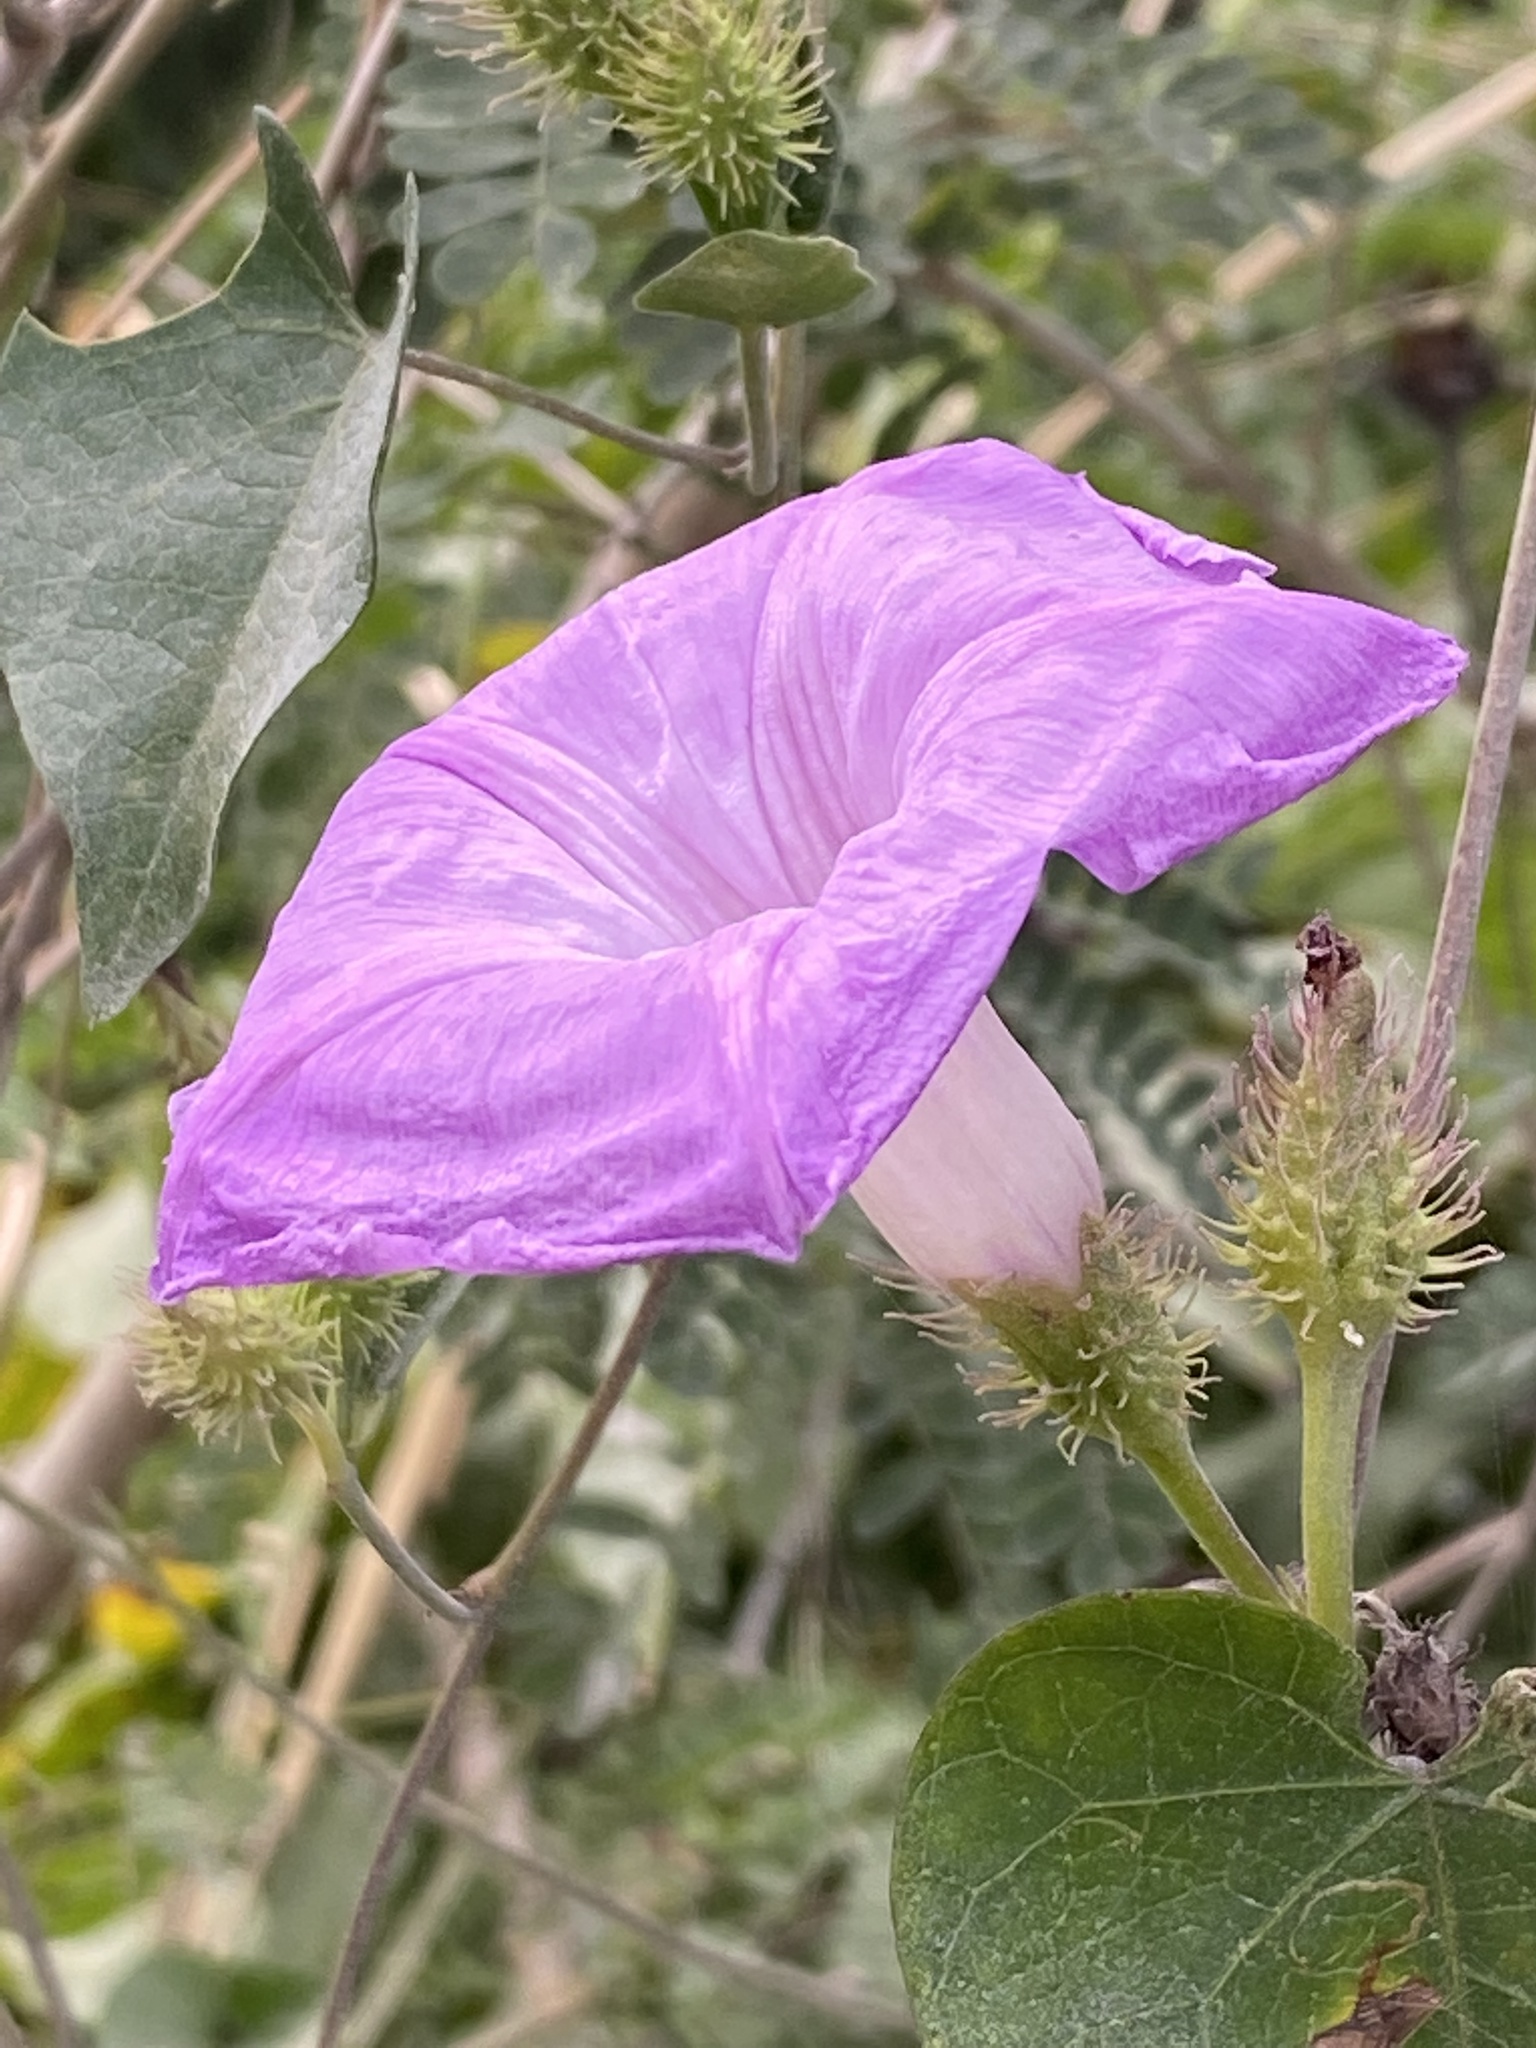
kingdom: Plantae
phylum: Tracheophyta
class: Magnoliopsida
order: Solanales
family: Convolvulaceae
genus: Ipomoea
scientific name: Ipomoea crinicalyx
